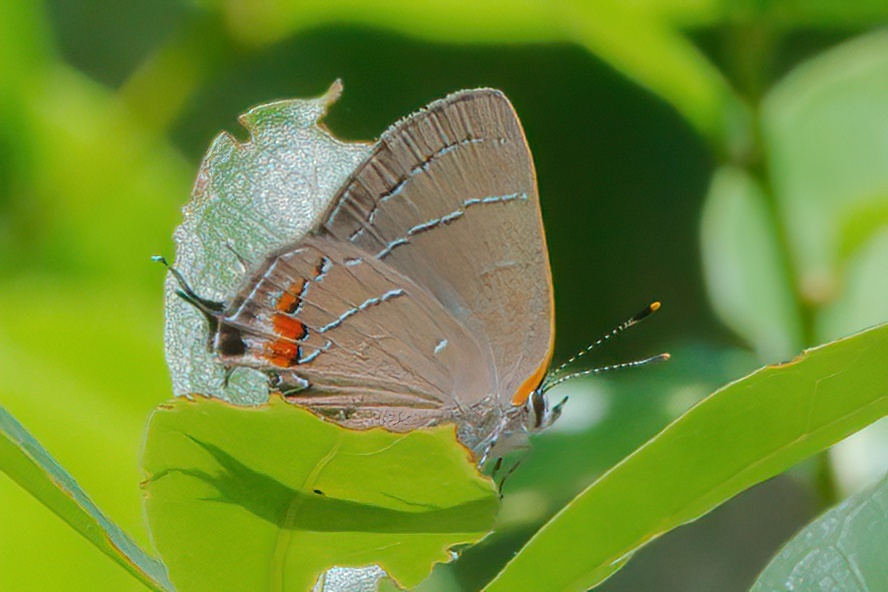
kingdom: Animalia
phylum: Arthropoda
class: Insecta
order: Lepidoptera
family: Lycaenidae
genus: Fixsenia
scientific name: Fixsenia favonius
